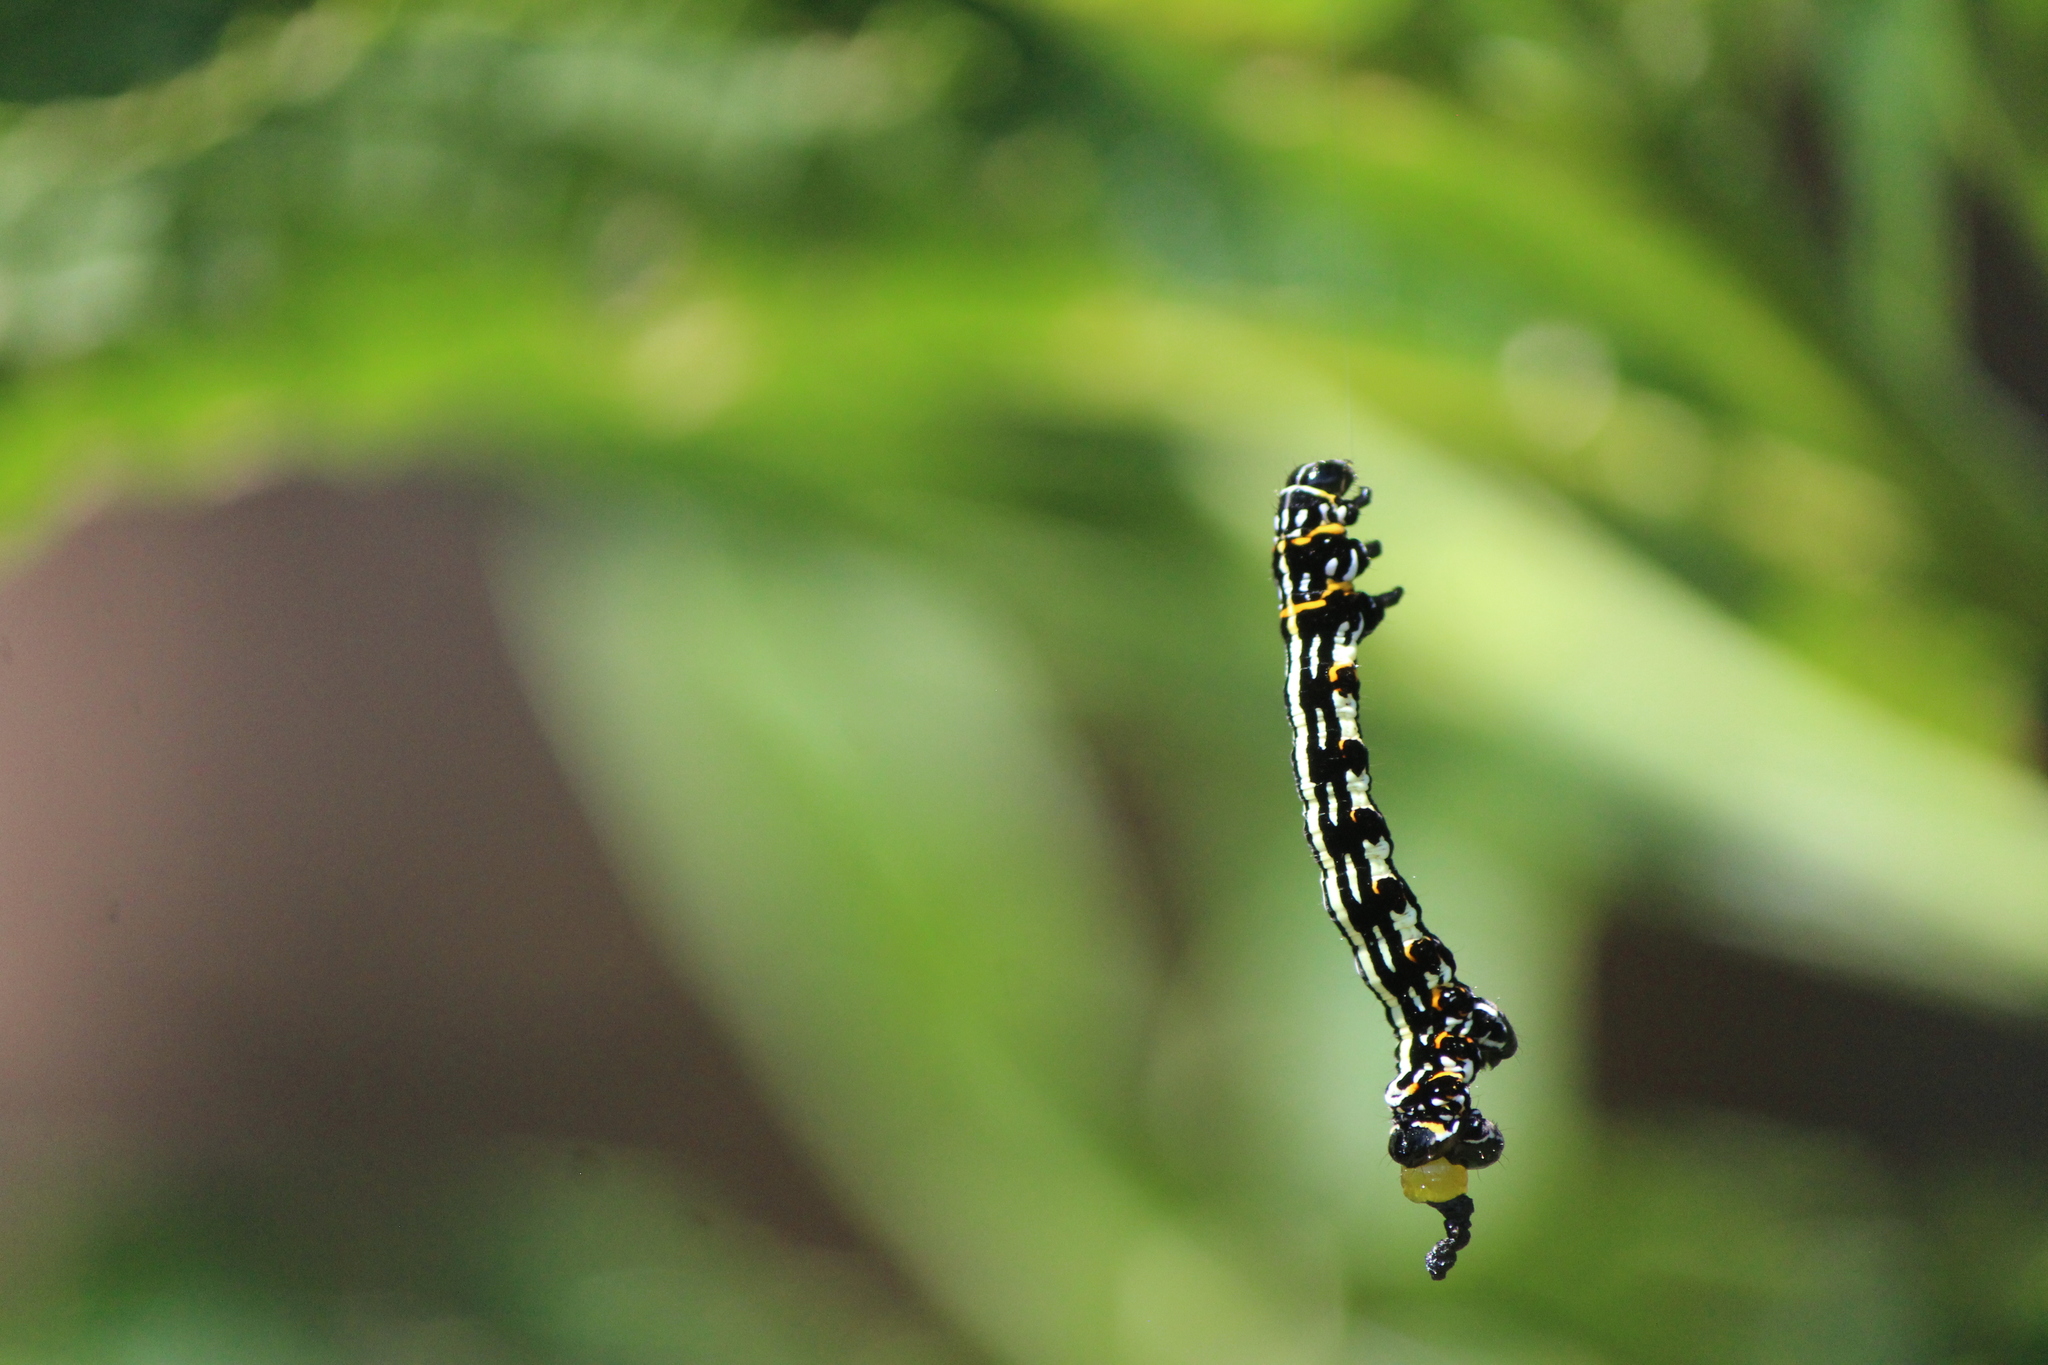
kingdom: Animalia
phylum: Arthropoda
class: Insecta
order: Lepidoptera
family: Geometridae
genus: Acronyctodes
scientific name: Acronyctodes mexicanaria
